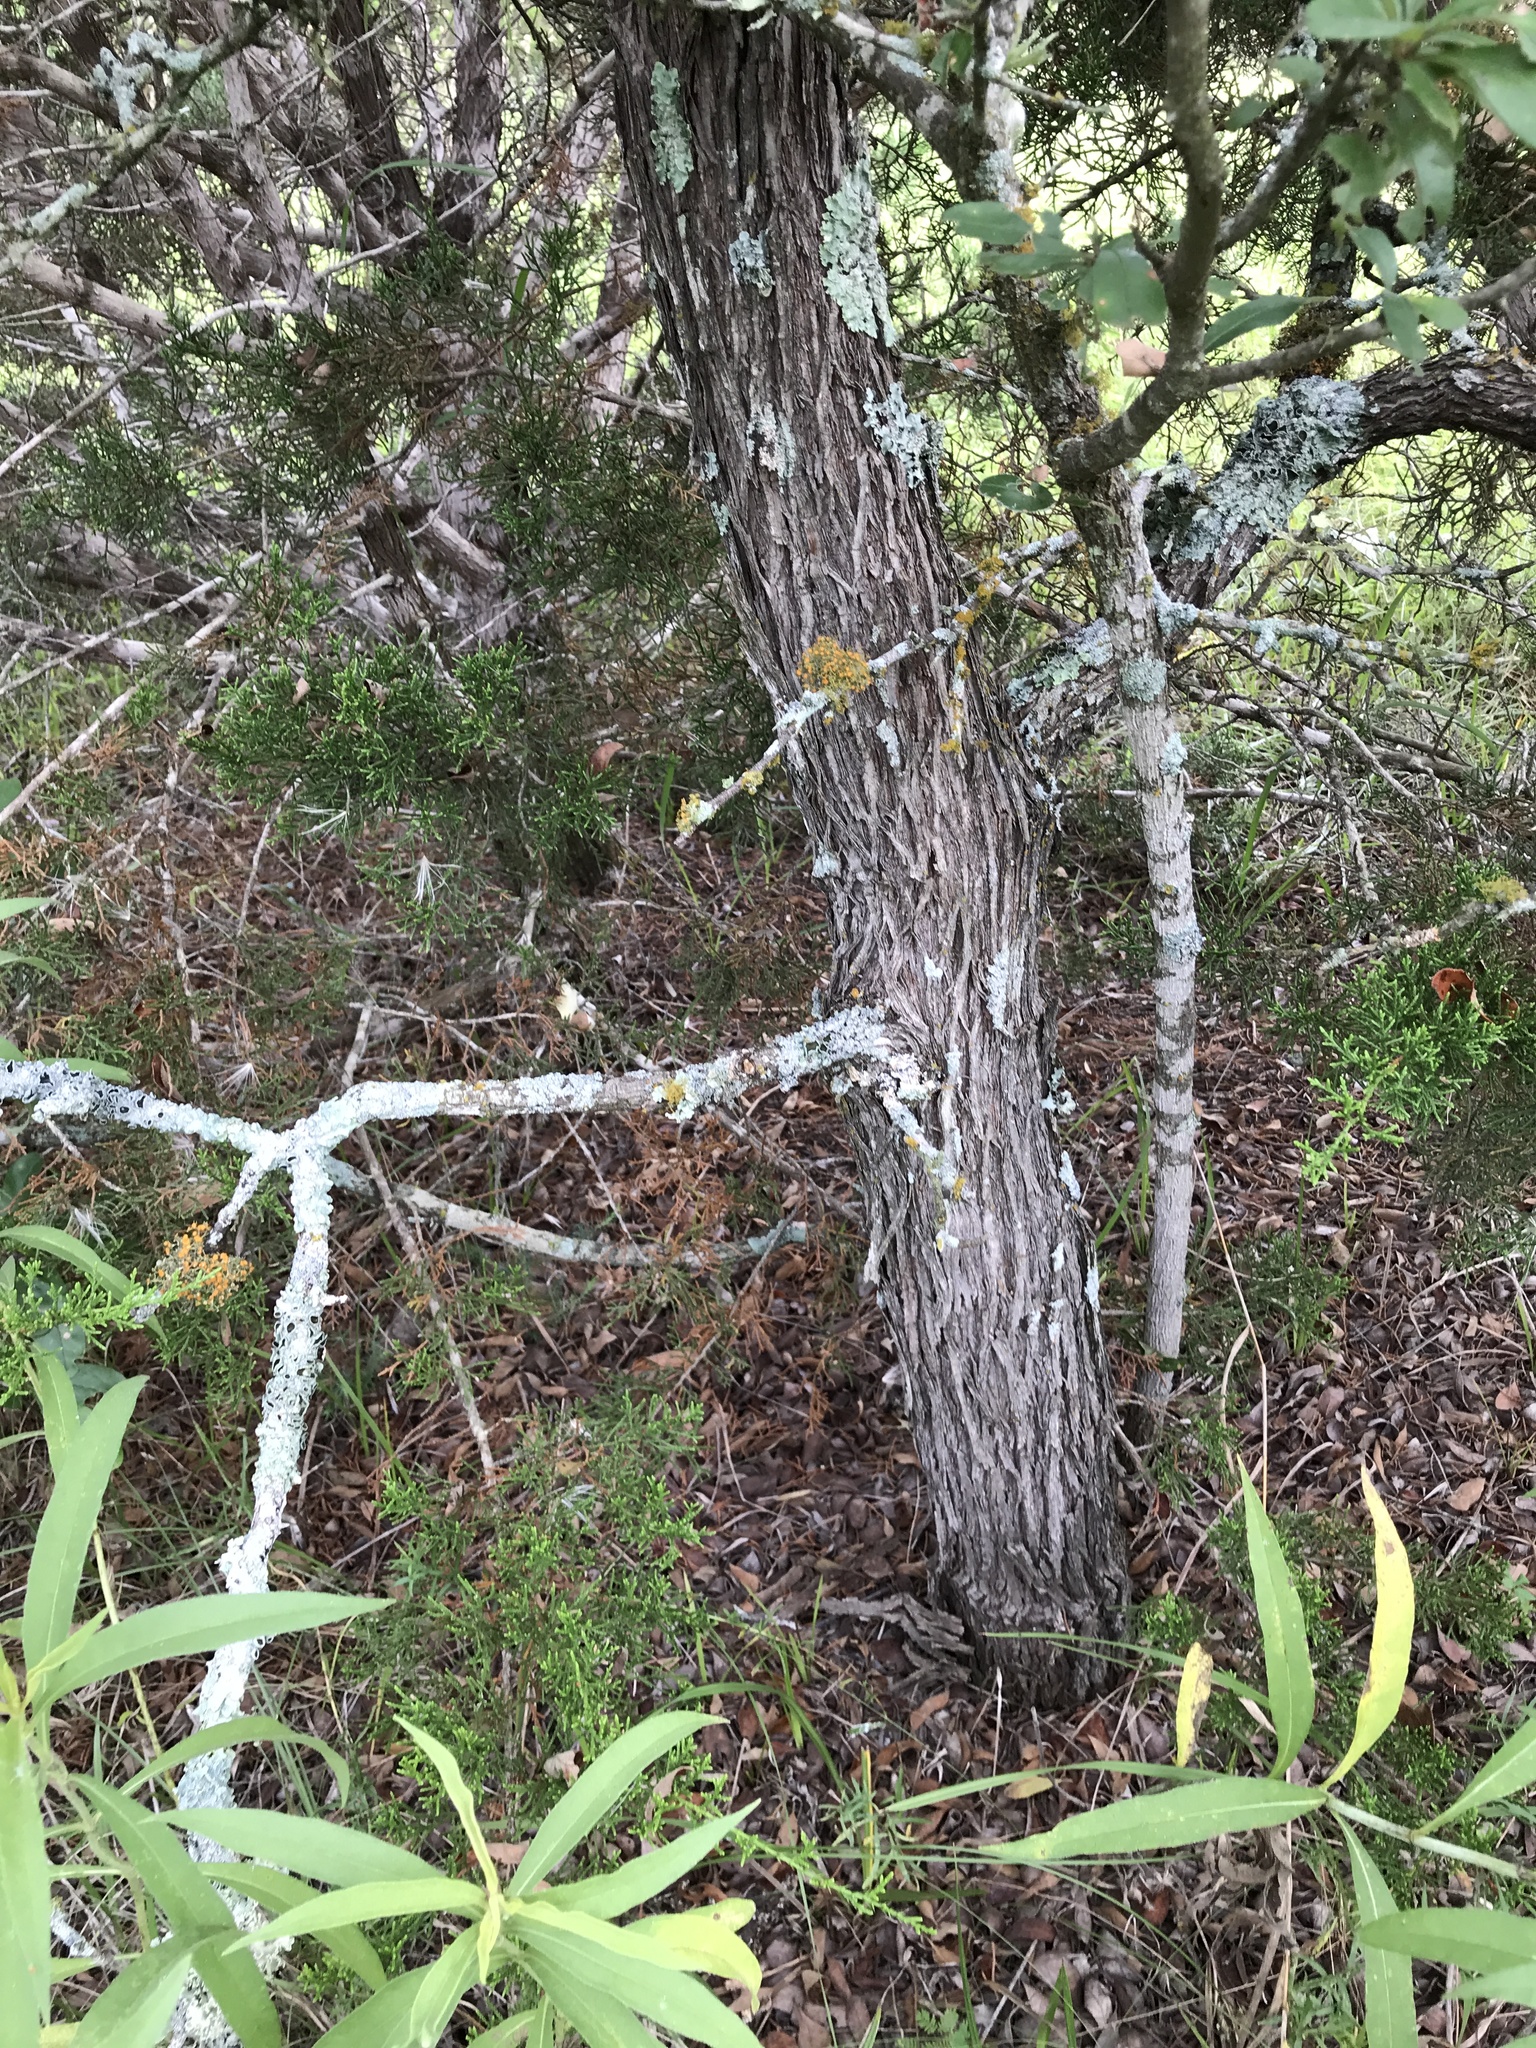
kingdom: Plantae
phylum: Tracheophyta
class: Magnoliopsida
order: Ericales
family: Sapotaceae
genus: Sideroxylon
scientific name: Sideroxylon lanuginosum
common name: Chittamwood
